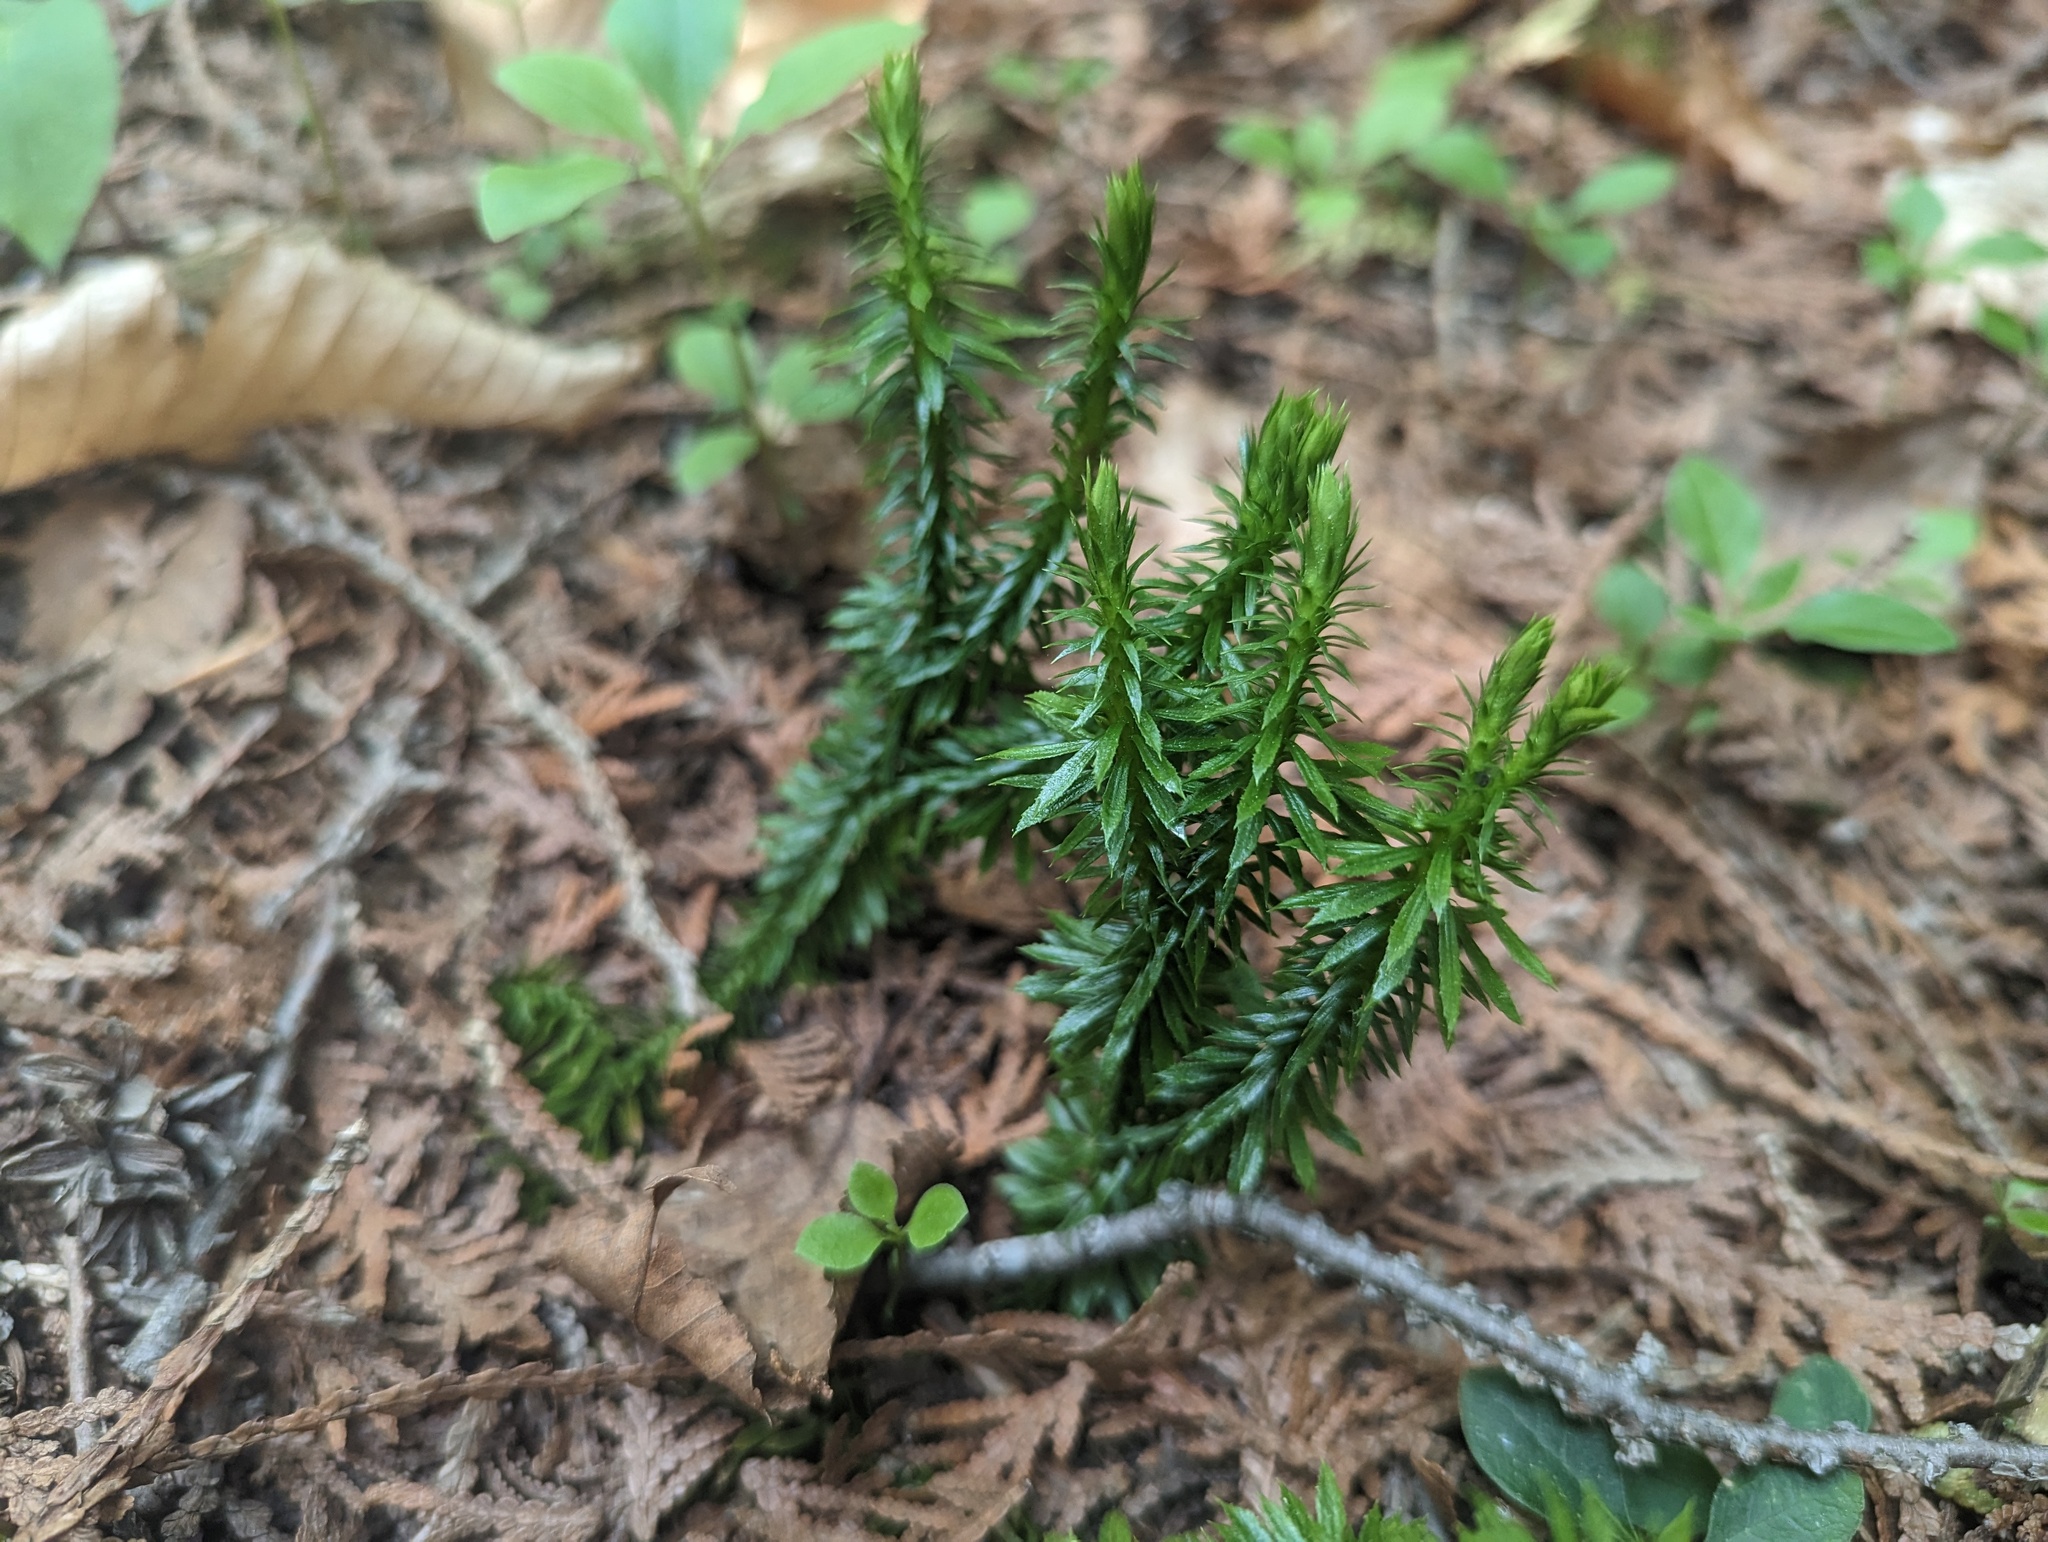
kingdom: Plantae
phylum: Tracheophyta
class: Lycopodiopsida
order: Lycopodiales
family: Lycopodiaceae
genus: Huperzia
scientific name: Huperzia lucidula
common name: Shining clubmoss
